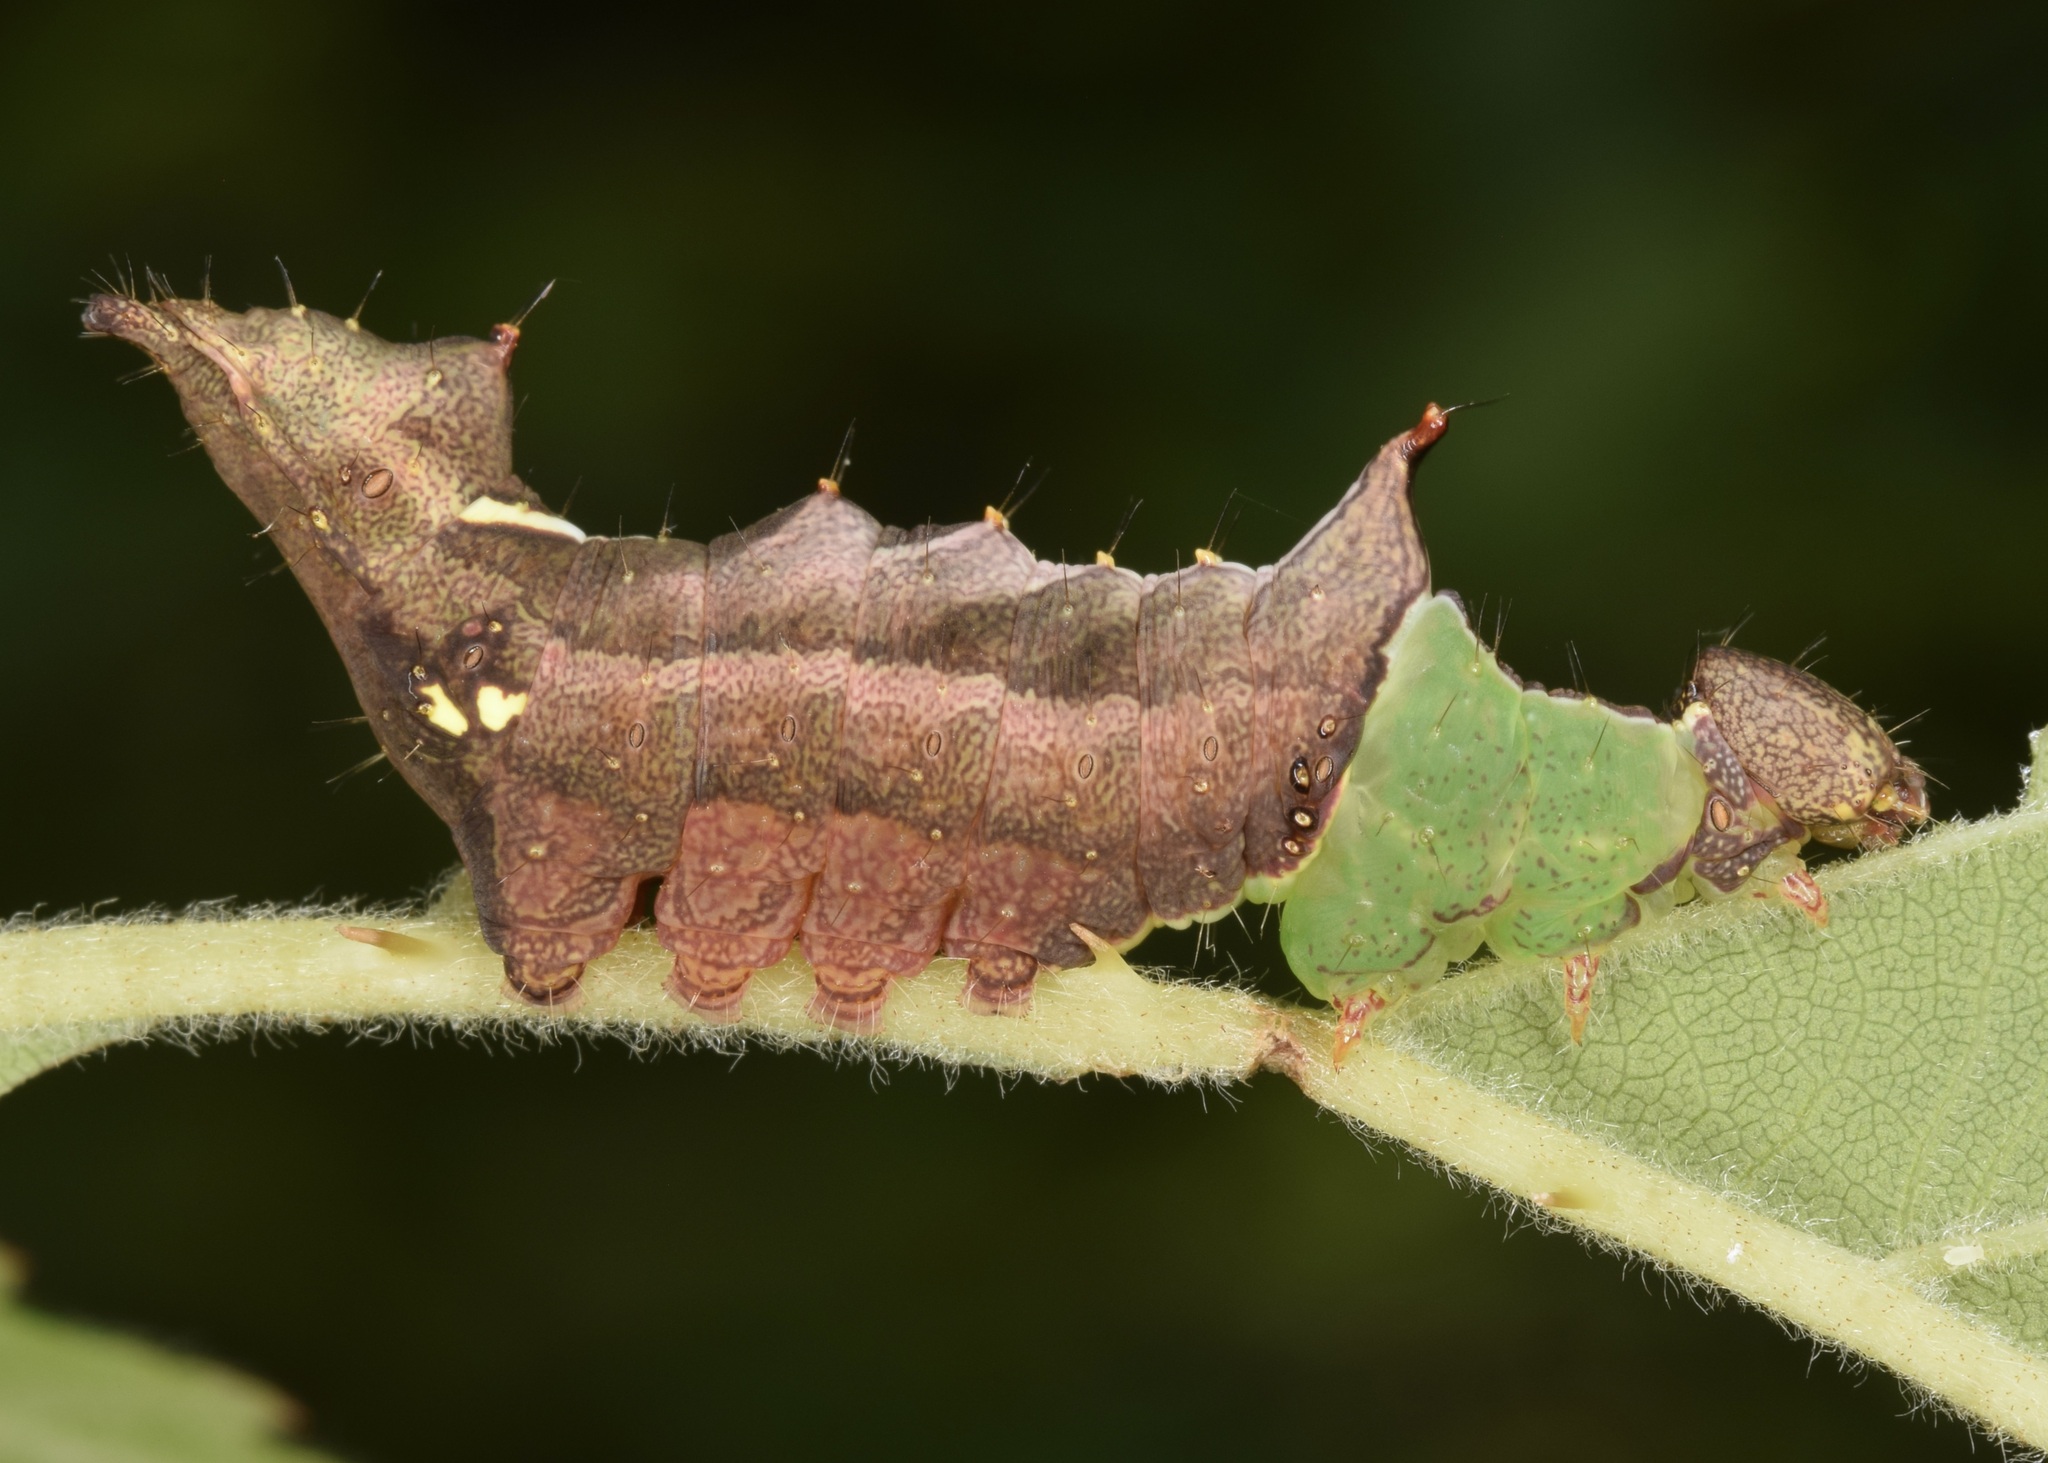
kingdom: Animalia
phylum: Arthropoda
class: Insecta
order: Lepidoptera
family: Notodontidae
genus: Schizura
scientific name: Schizura
